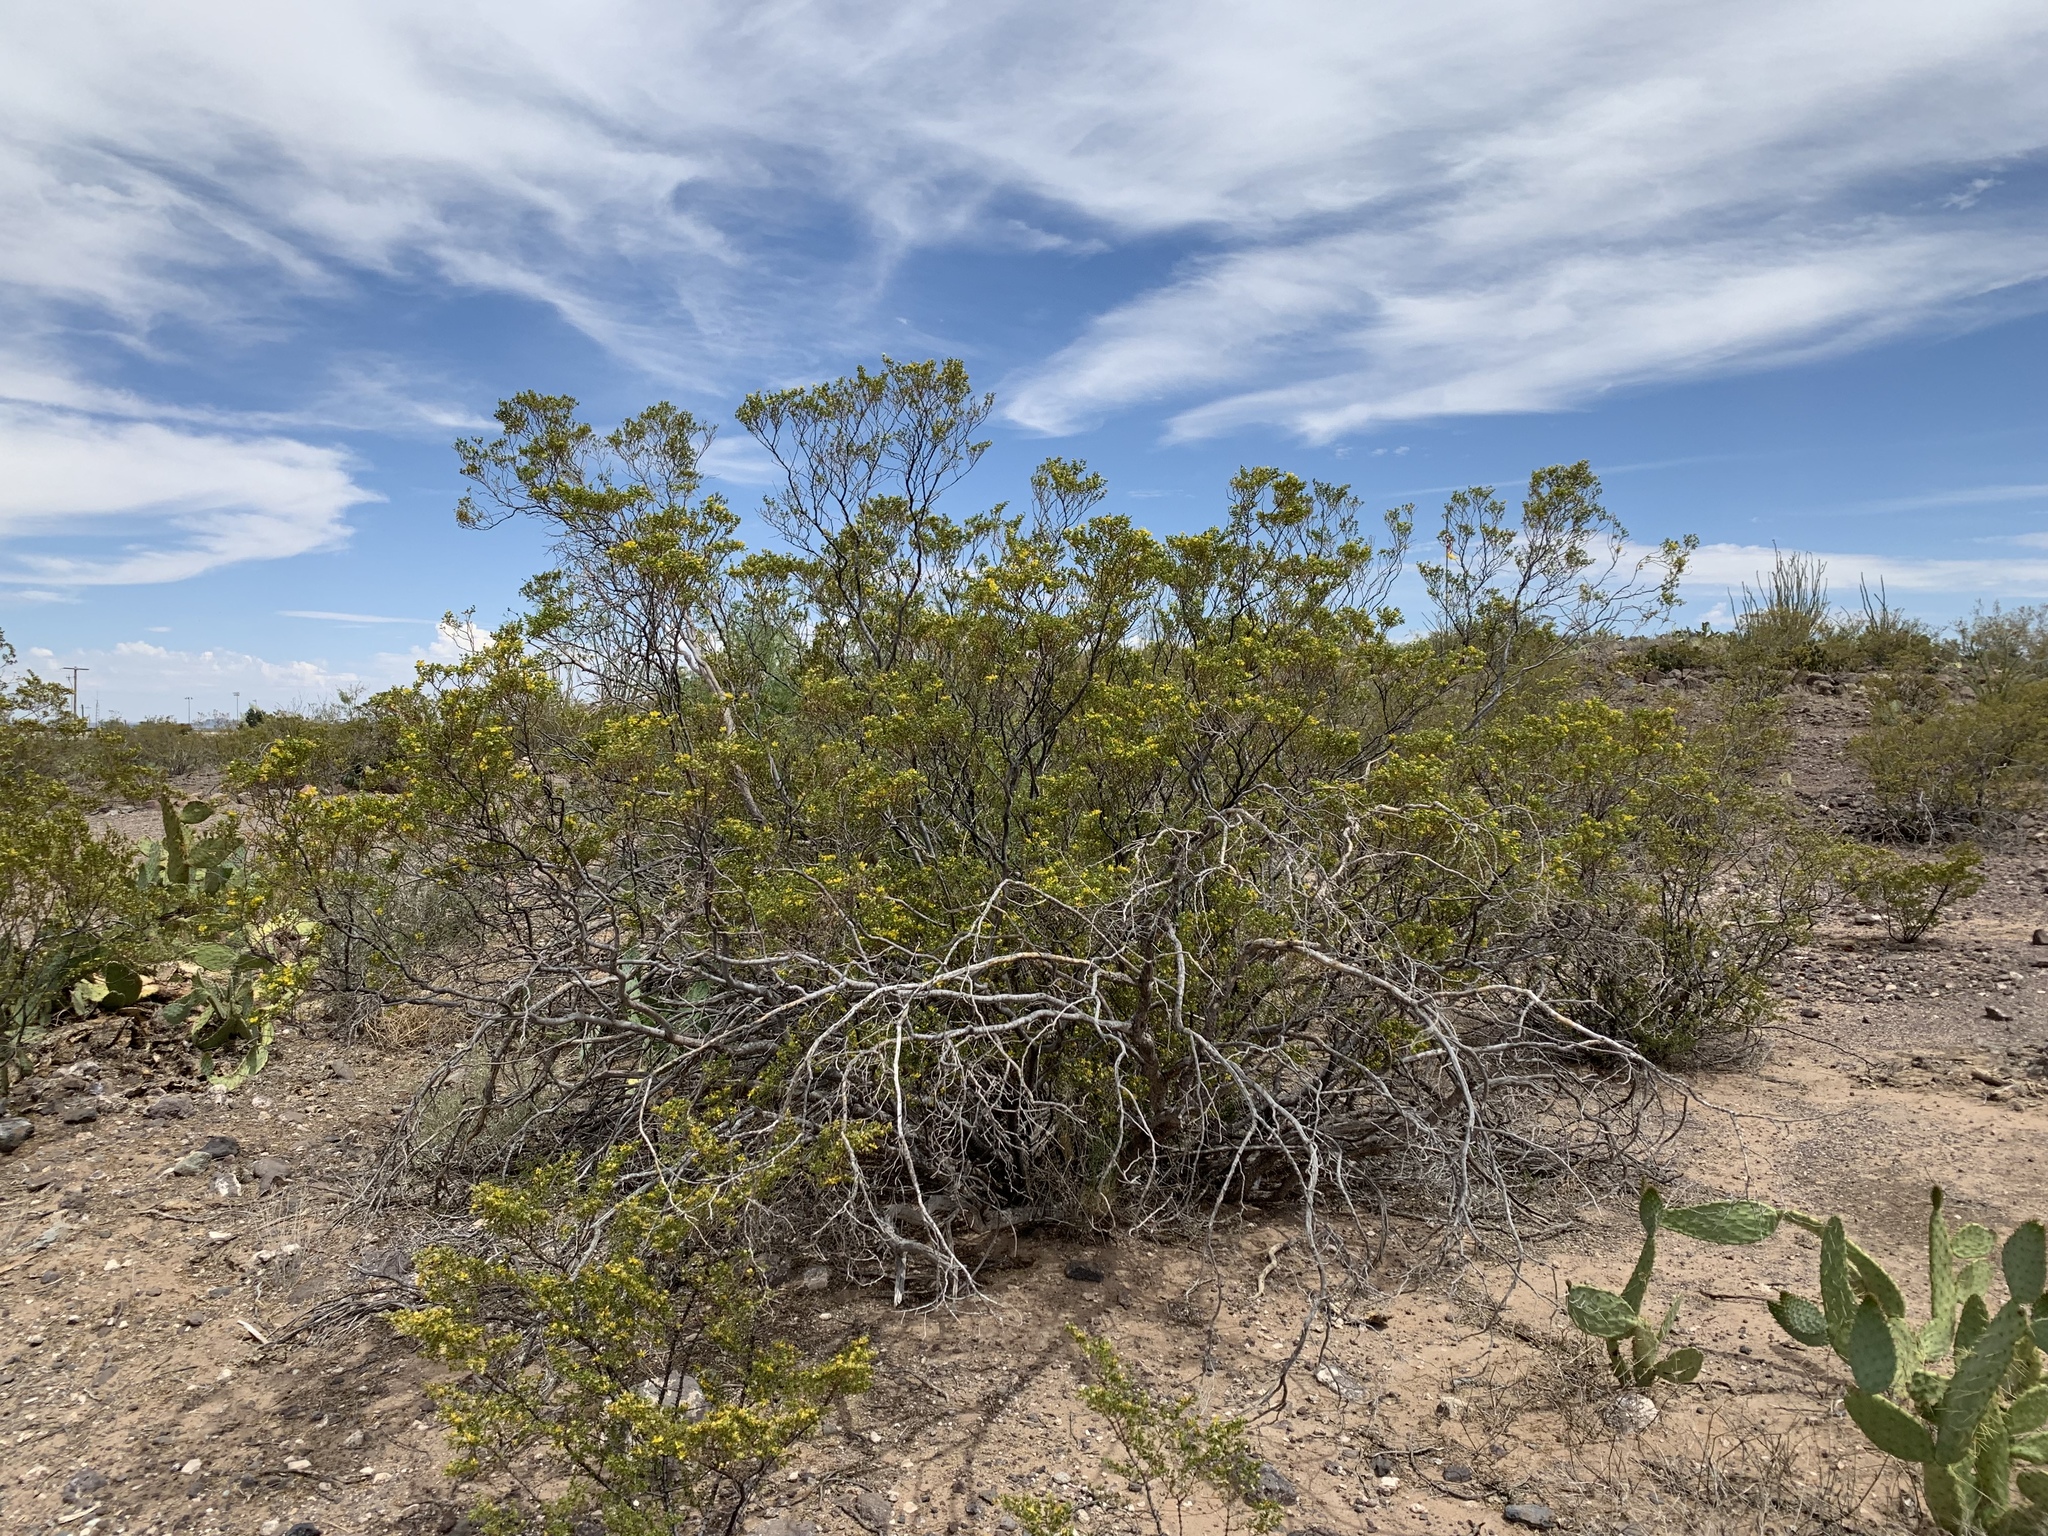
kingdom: Plantae
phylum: Tracheophyta
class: Magnoliopsida
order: Zygophyllales
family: Zygophyllaceae
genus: Larrea
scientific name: Larrea tridentata
